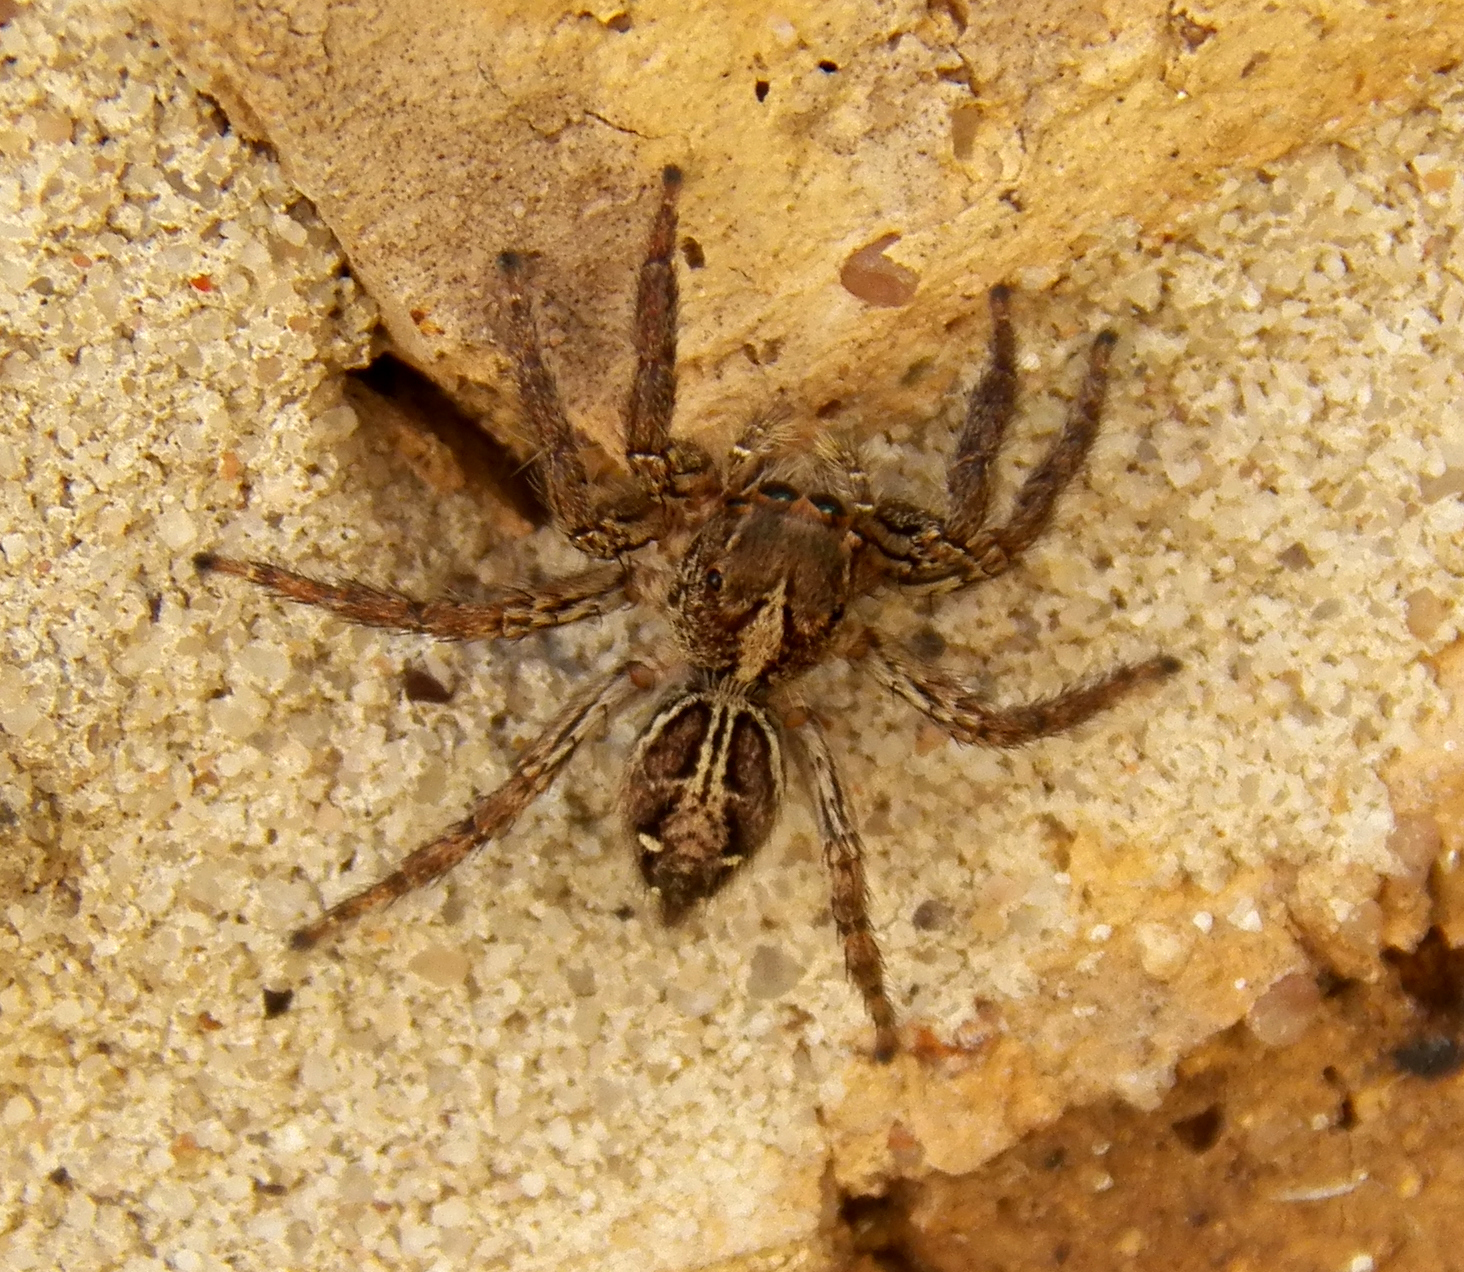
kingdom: Animalia
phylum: Arthropoda
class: Arachnida
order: Araneae
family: Salticidae
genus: Plexippus
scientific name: Plexippus paykulli
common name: Pantropical jumper
